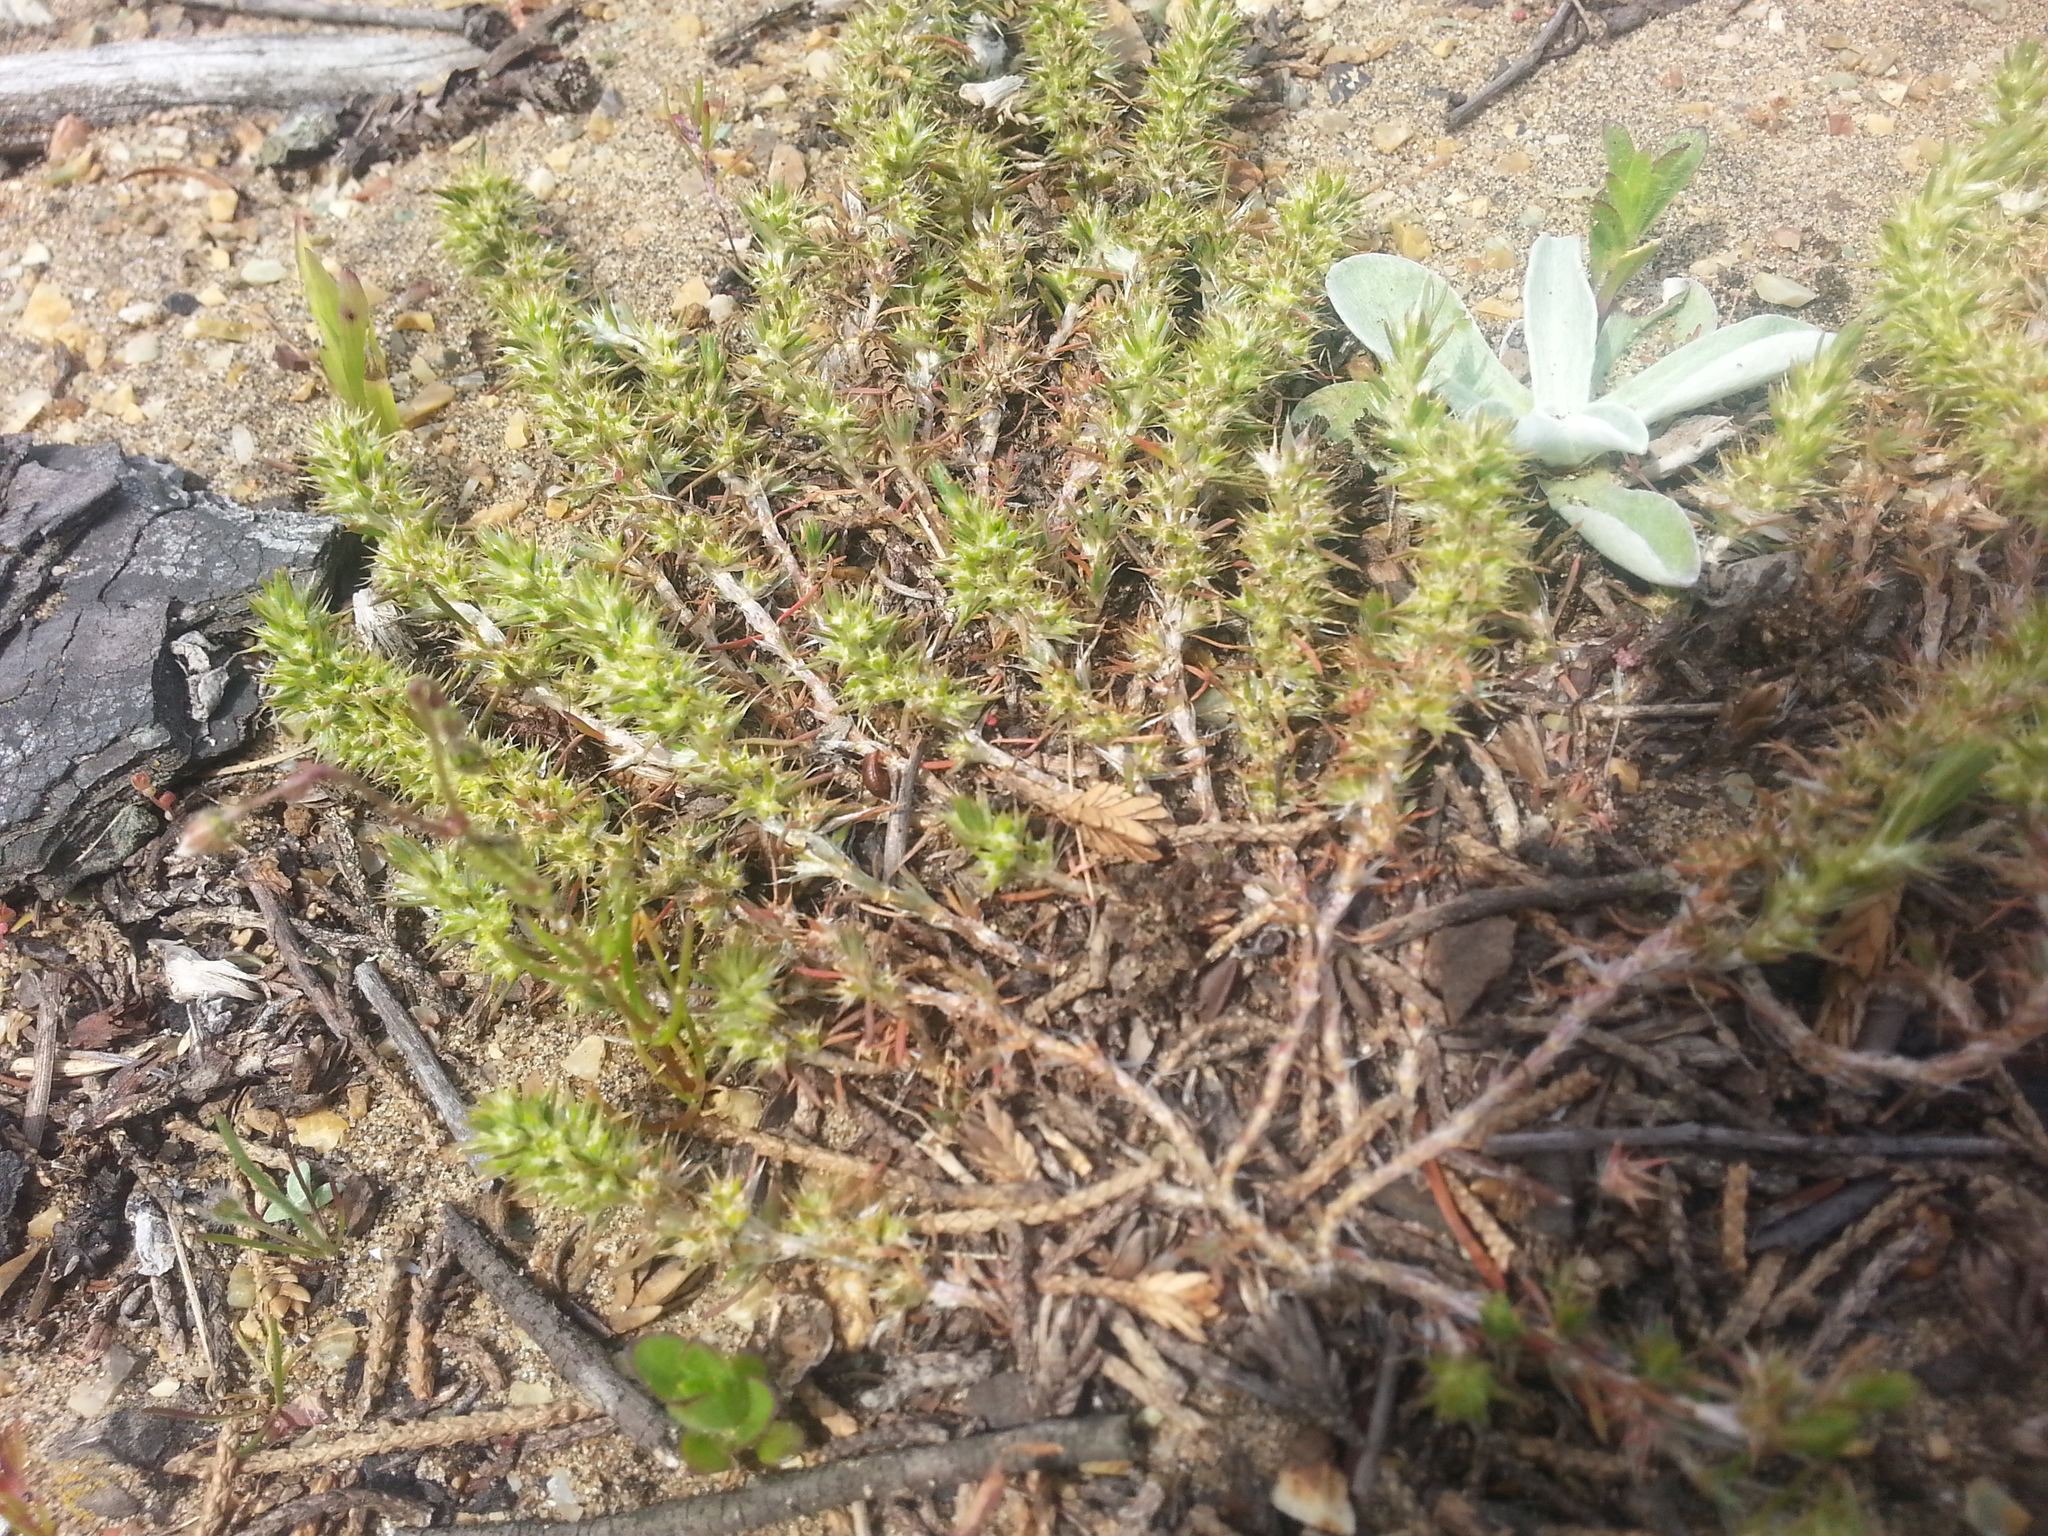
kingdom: Plantae
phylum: Tracheophyta
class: Magnoliopsida
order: Caryophyllales
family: Caryophyllaceae
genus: Cardionema
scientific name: Cardionema ramosissima
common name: Sandcarpet
